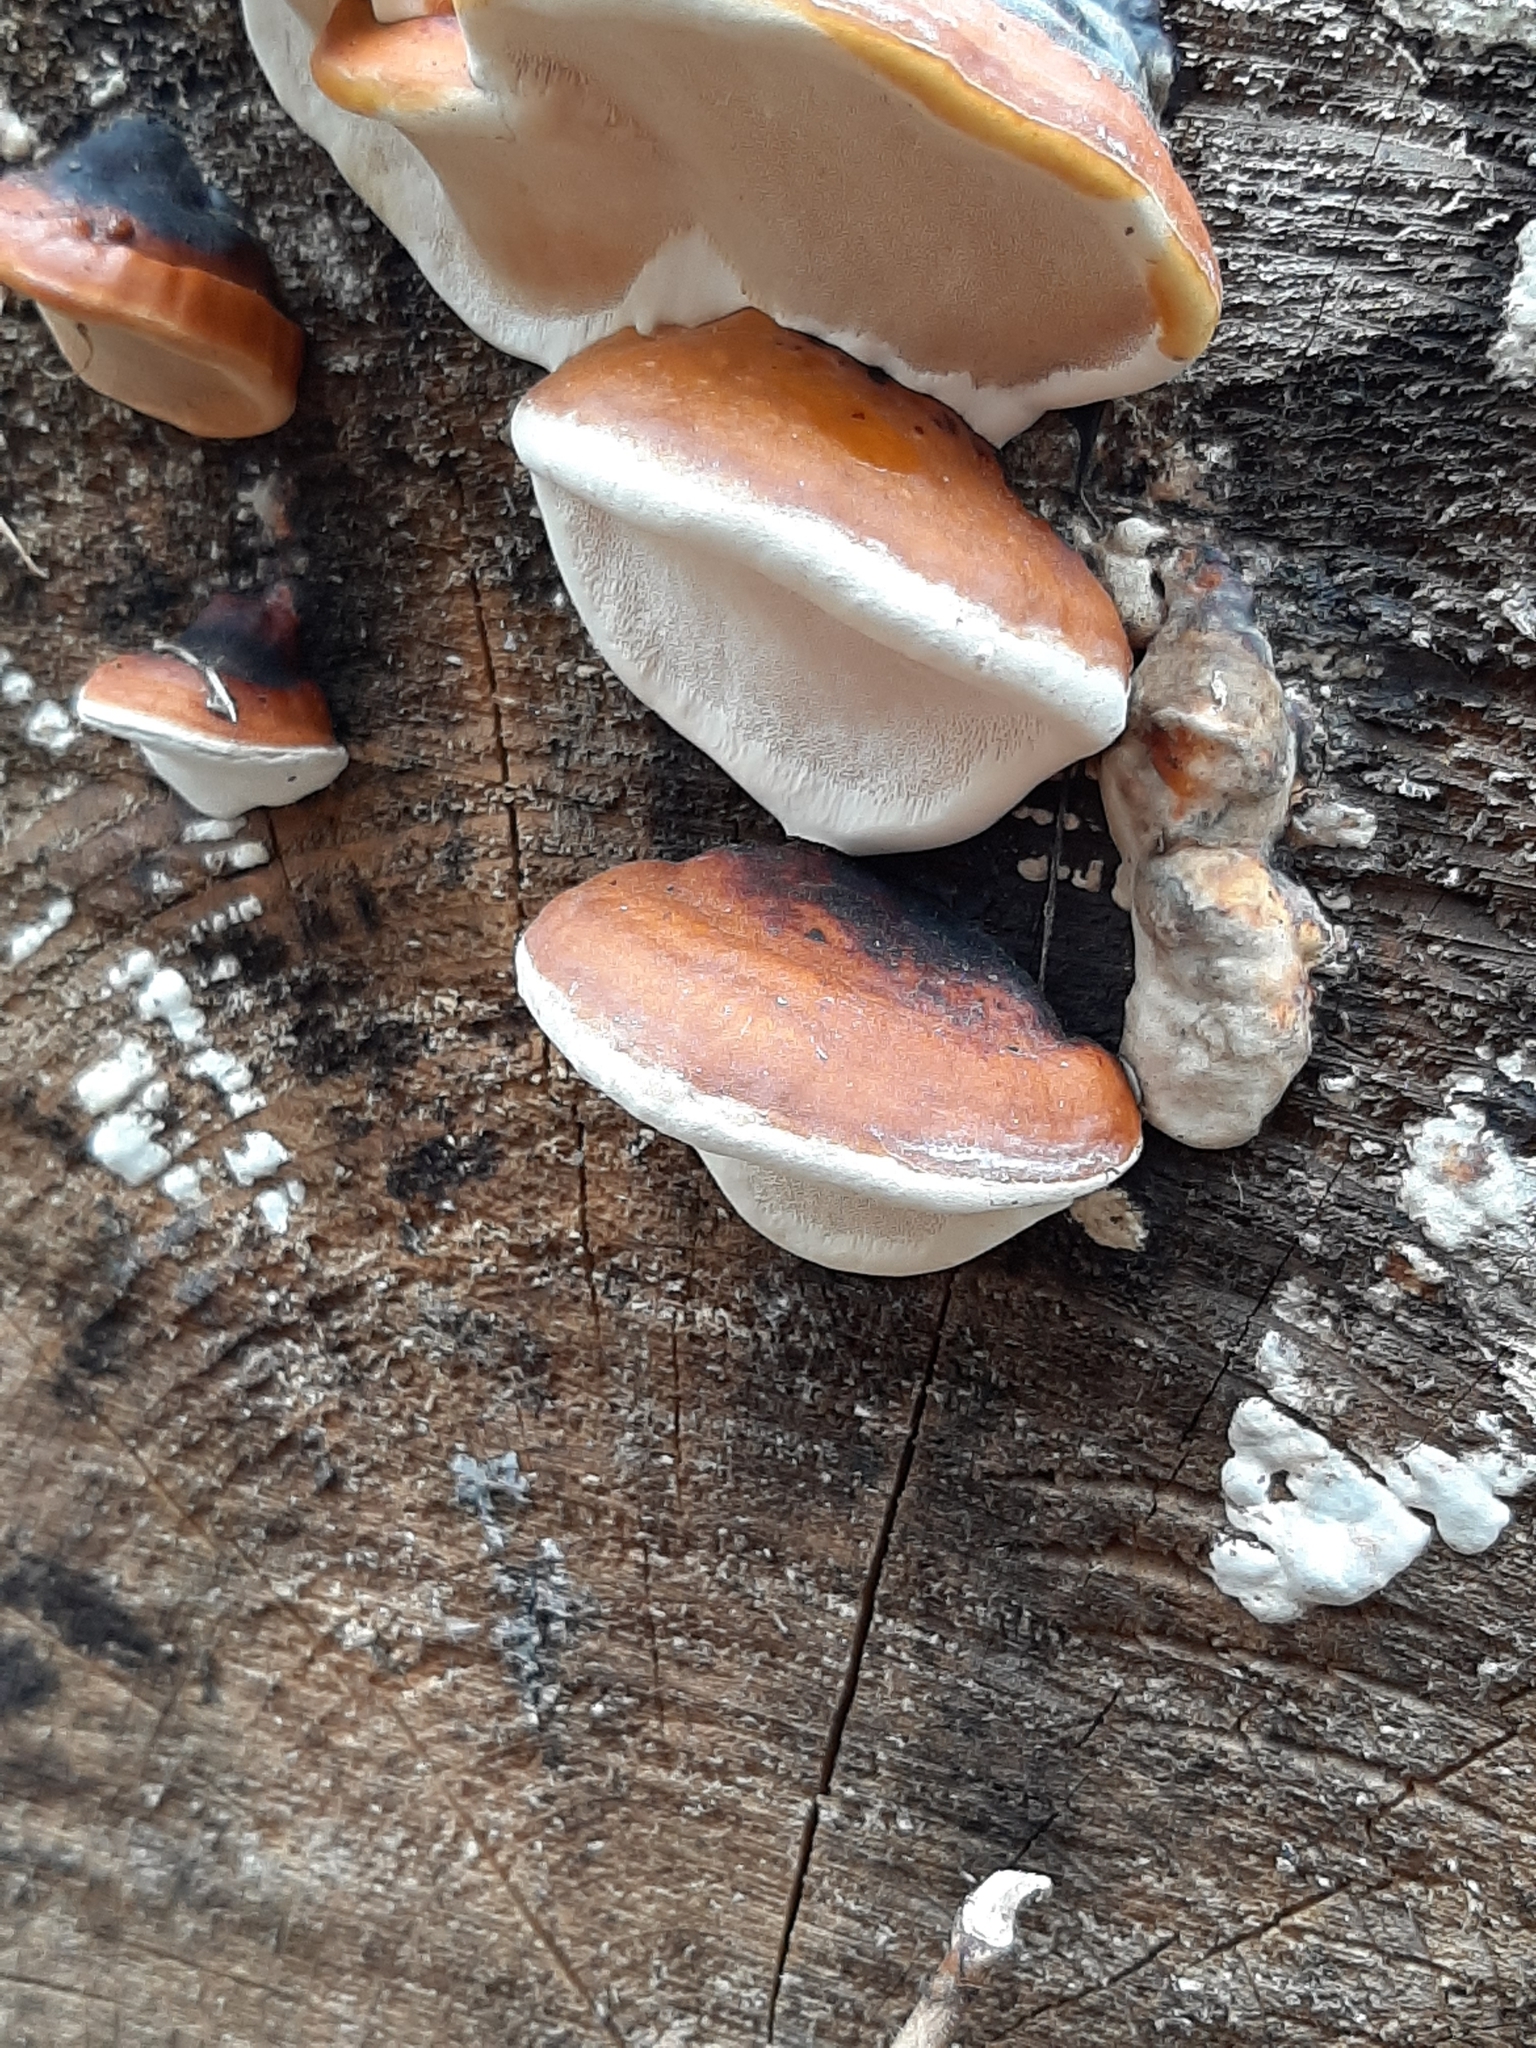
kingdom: Fungi
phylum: Basidiomycota
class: Agaricomycetes
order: Polyporales
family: Fomitopsidaceae
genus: Fomitopsis
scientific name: Fomitopsis mounceae
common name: Northern red belt
